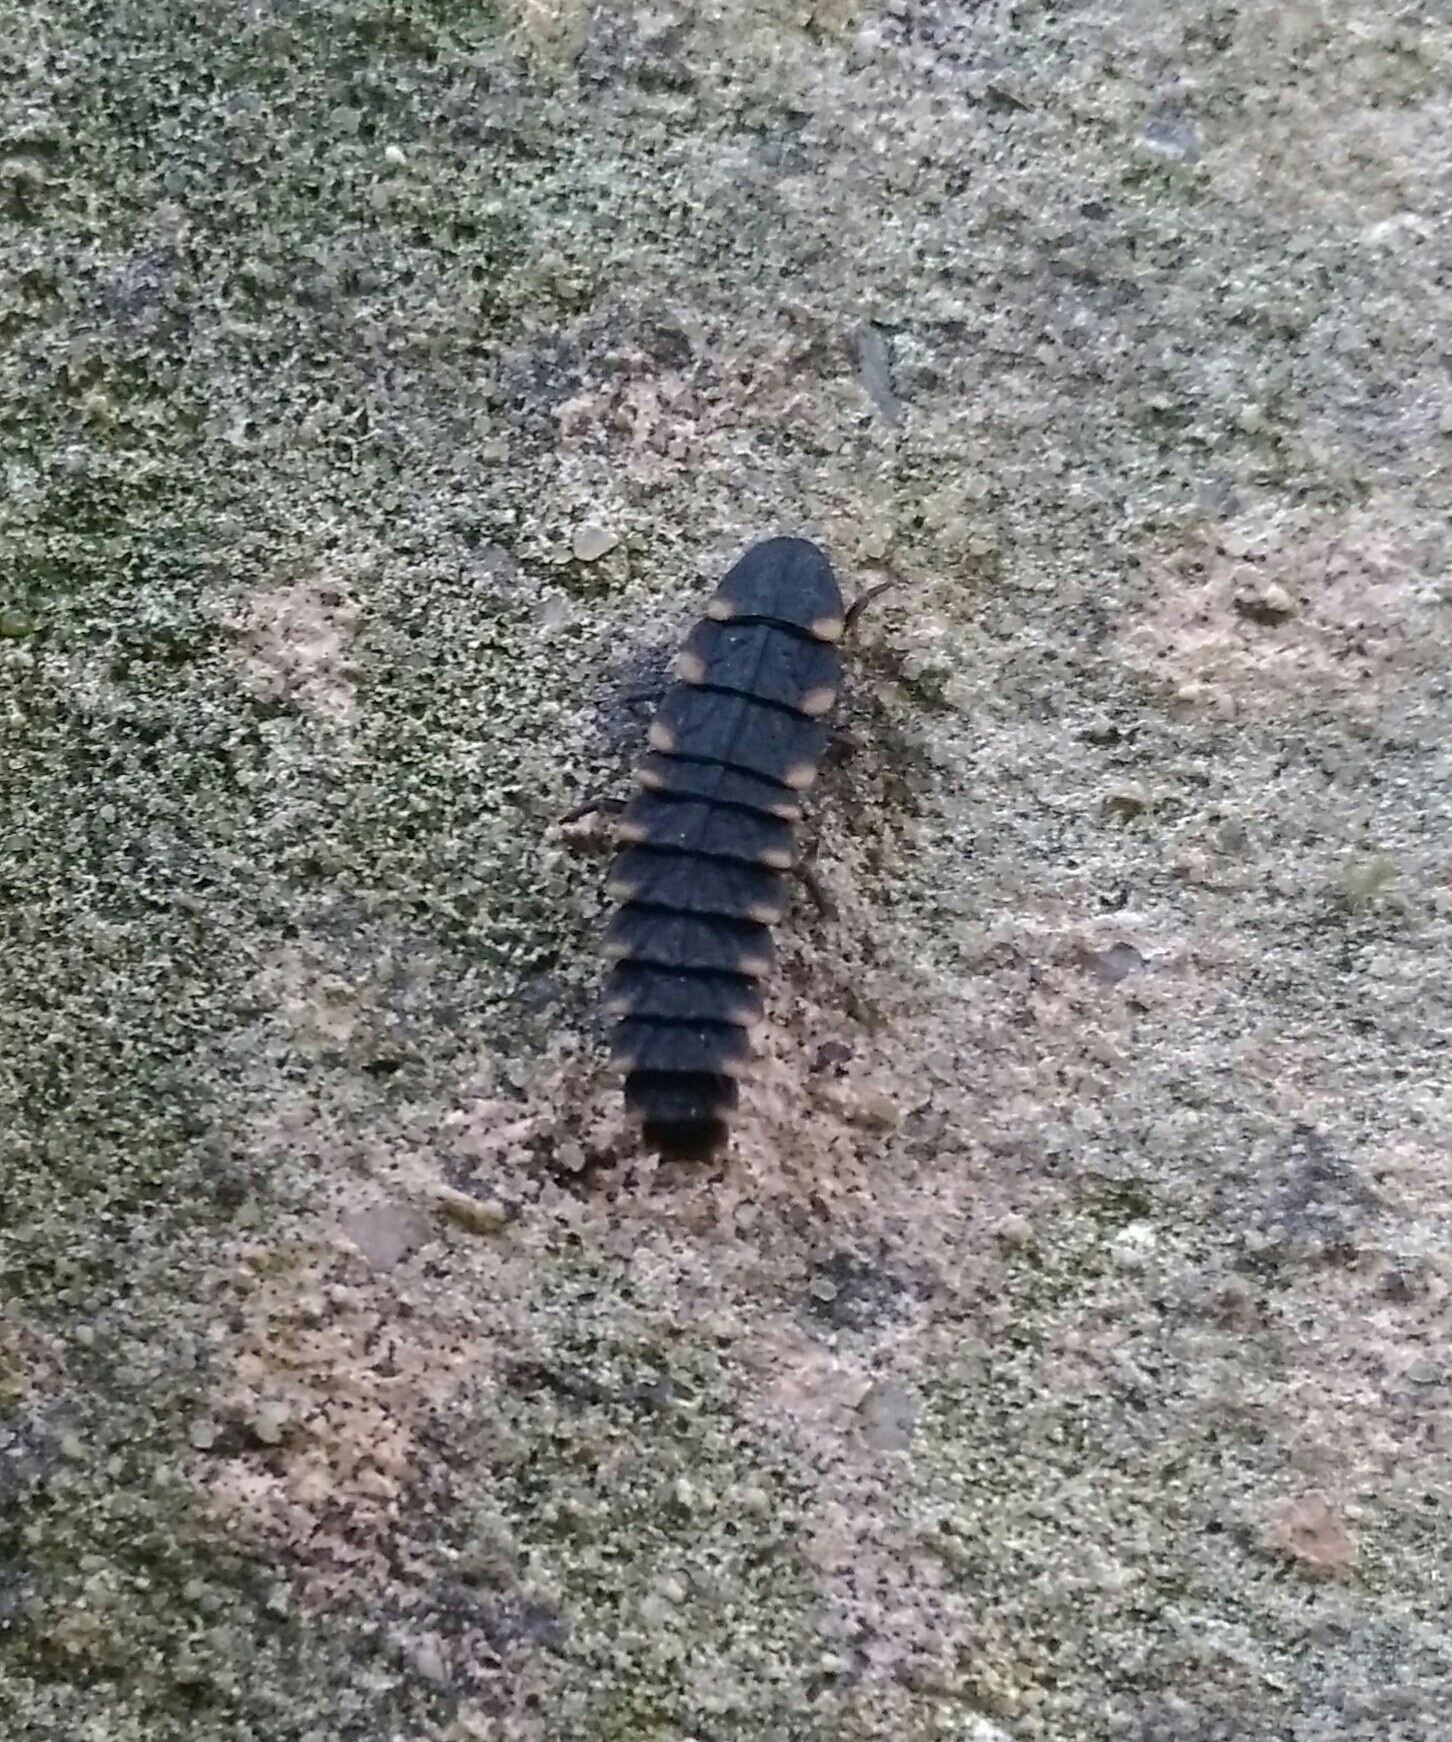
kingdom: Animalia
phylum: Arthropoda
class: Insecta
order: Coleoptera
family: Lampyridae
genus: Lampyris
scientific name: Lampyris noctiluca
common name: Glow-worm
